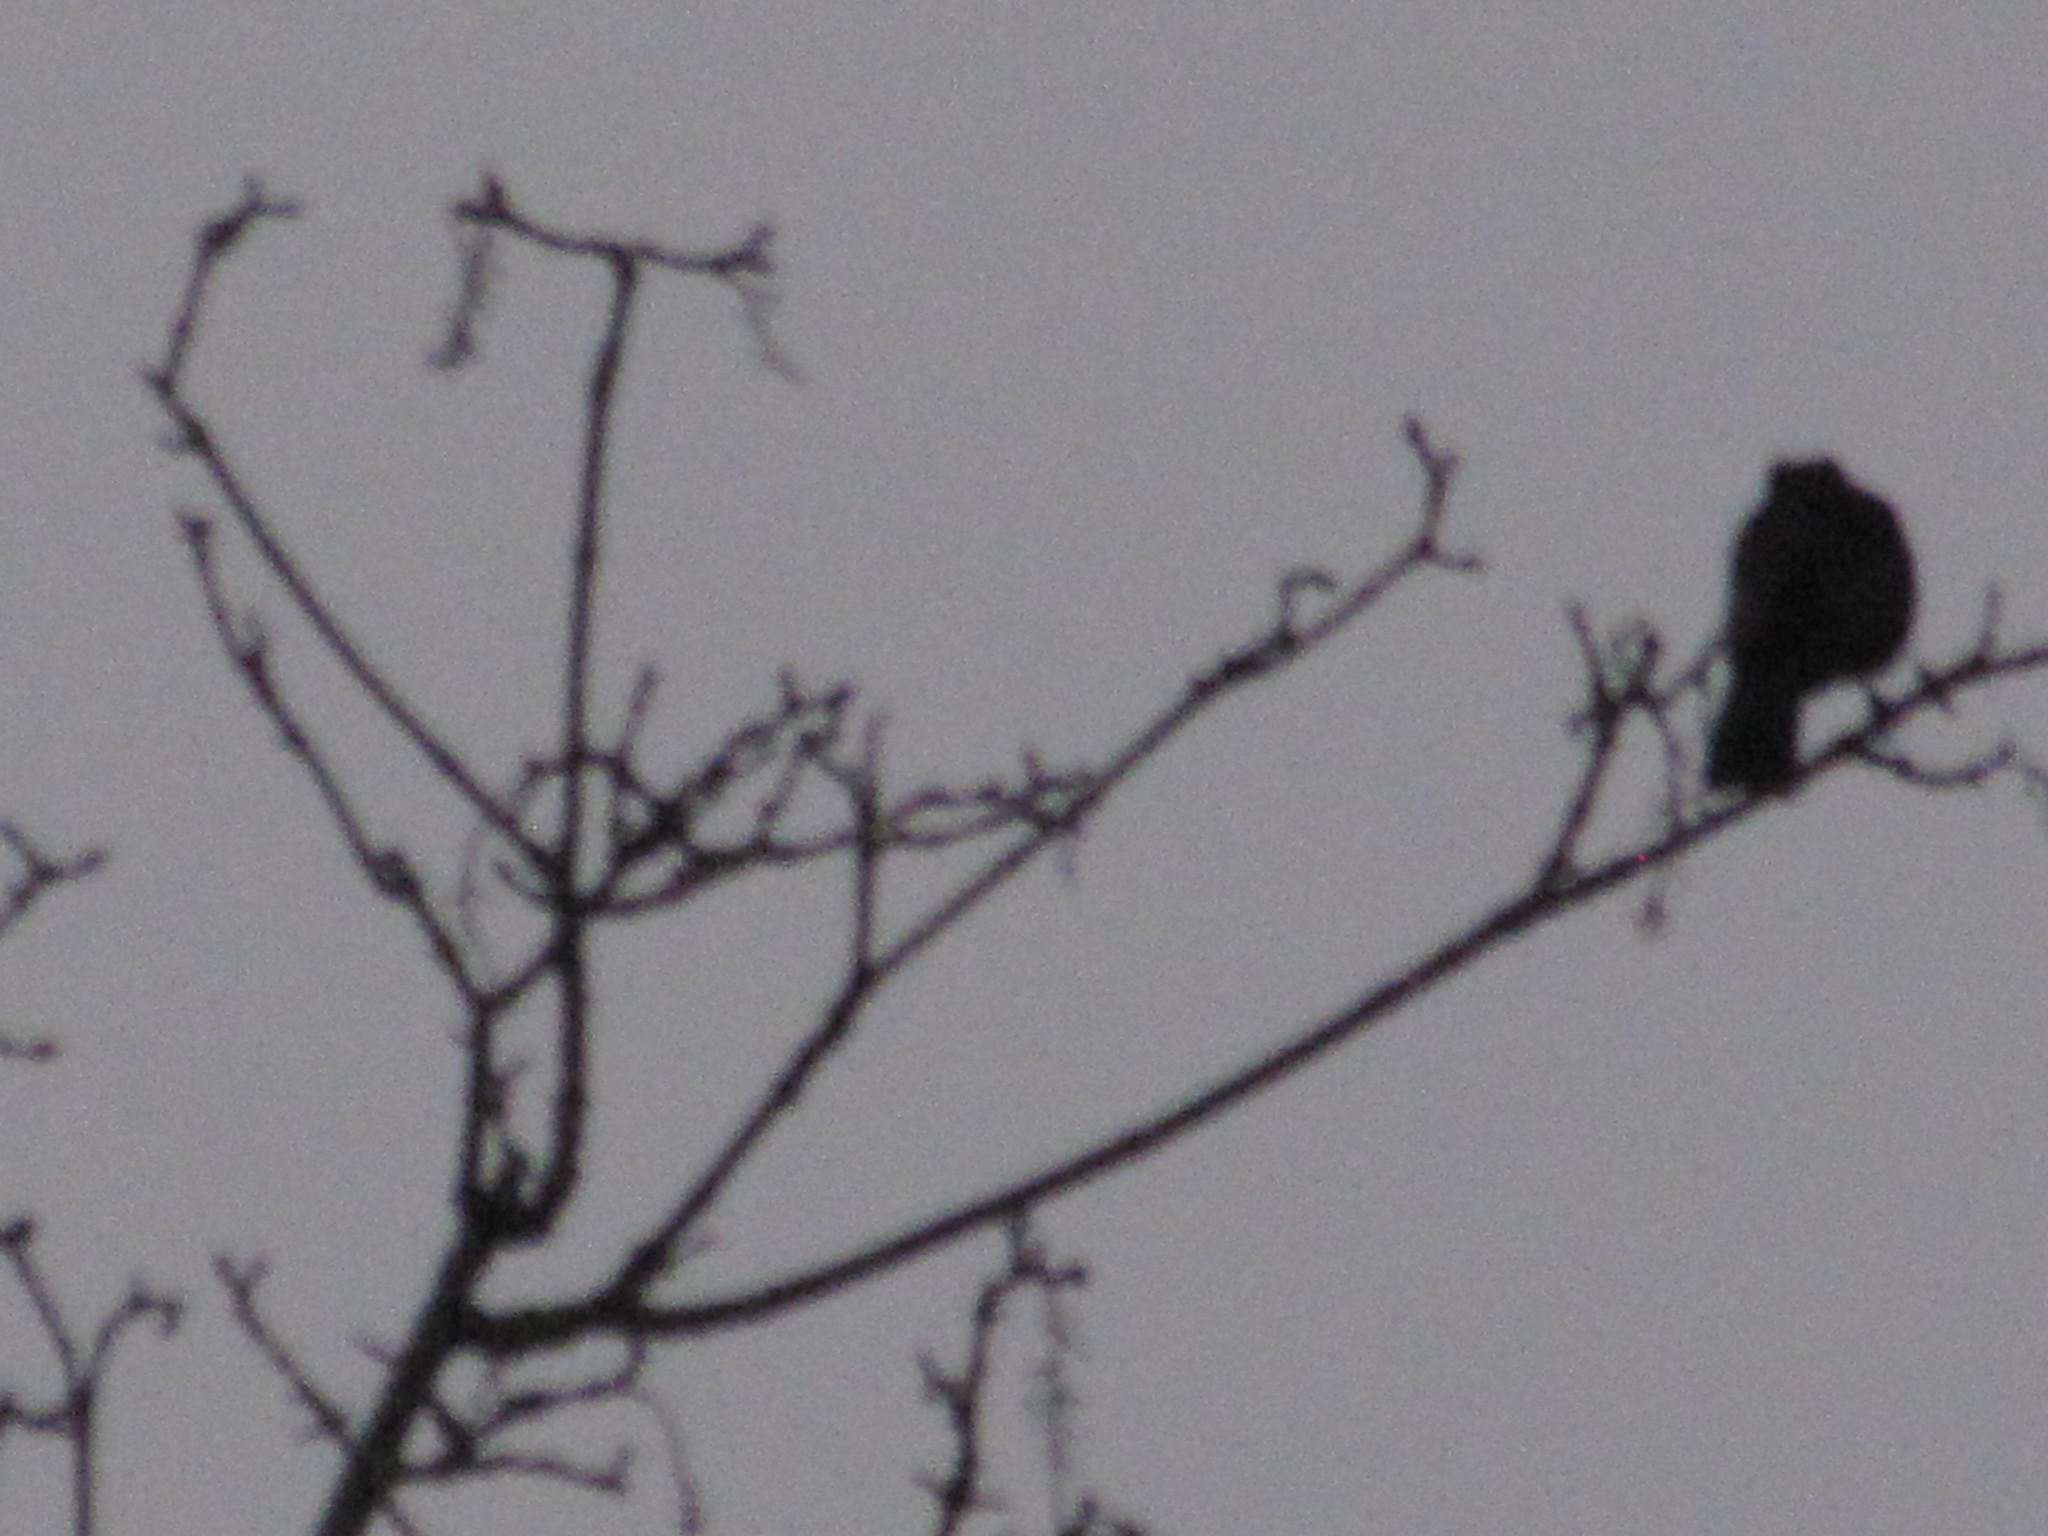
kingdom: Animalia
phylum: Chordata
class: Aves
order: Passeriformes
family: Corvidae
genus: Cyanocitta
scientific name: Cyanocitta stelleri
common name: Steller's jay
